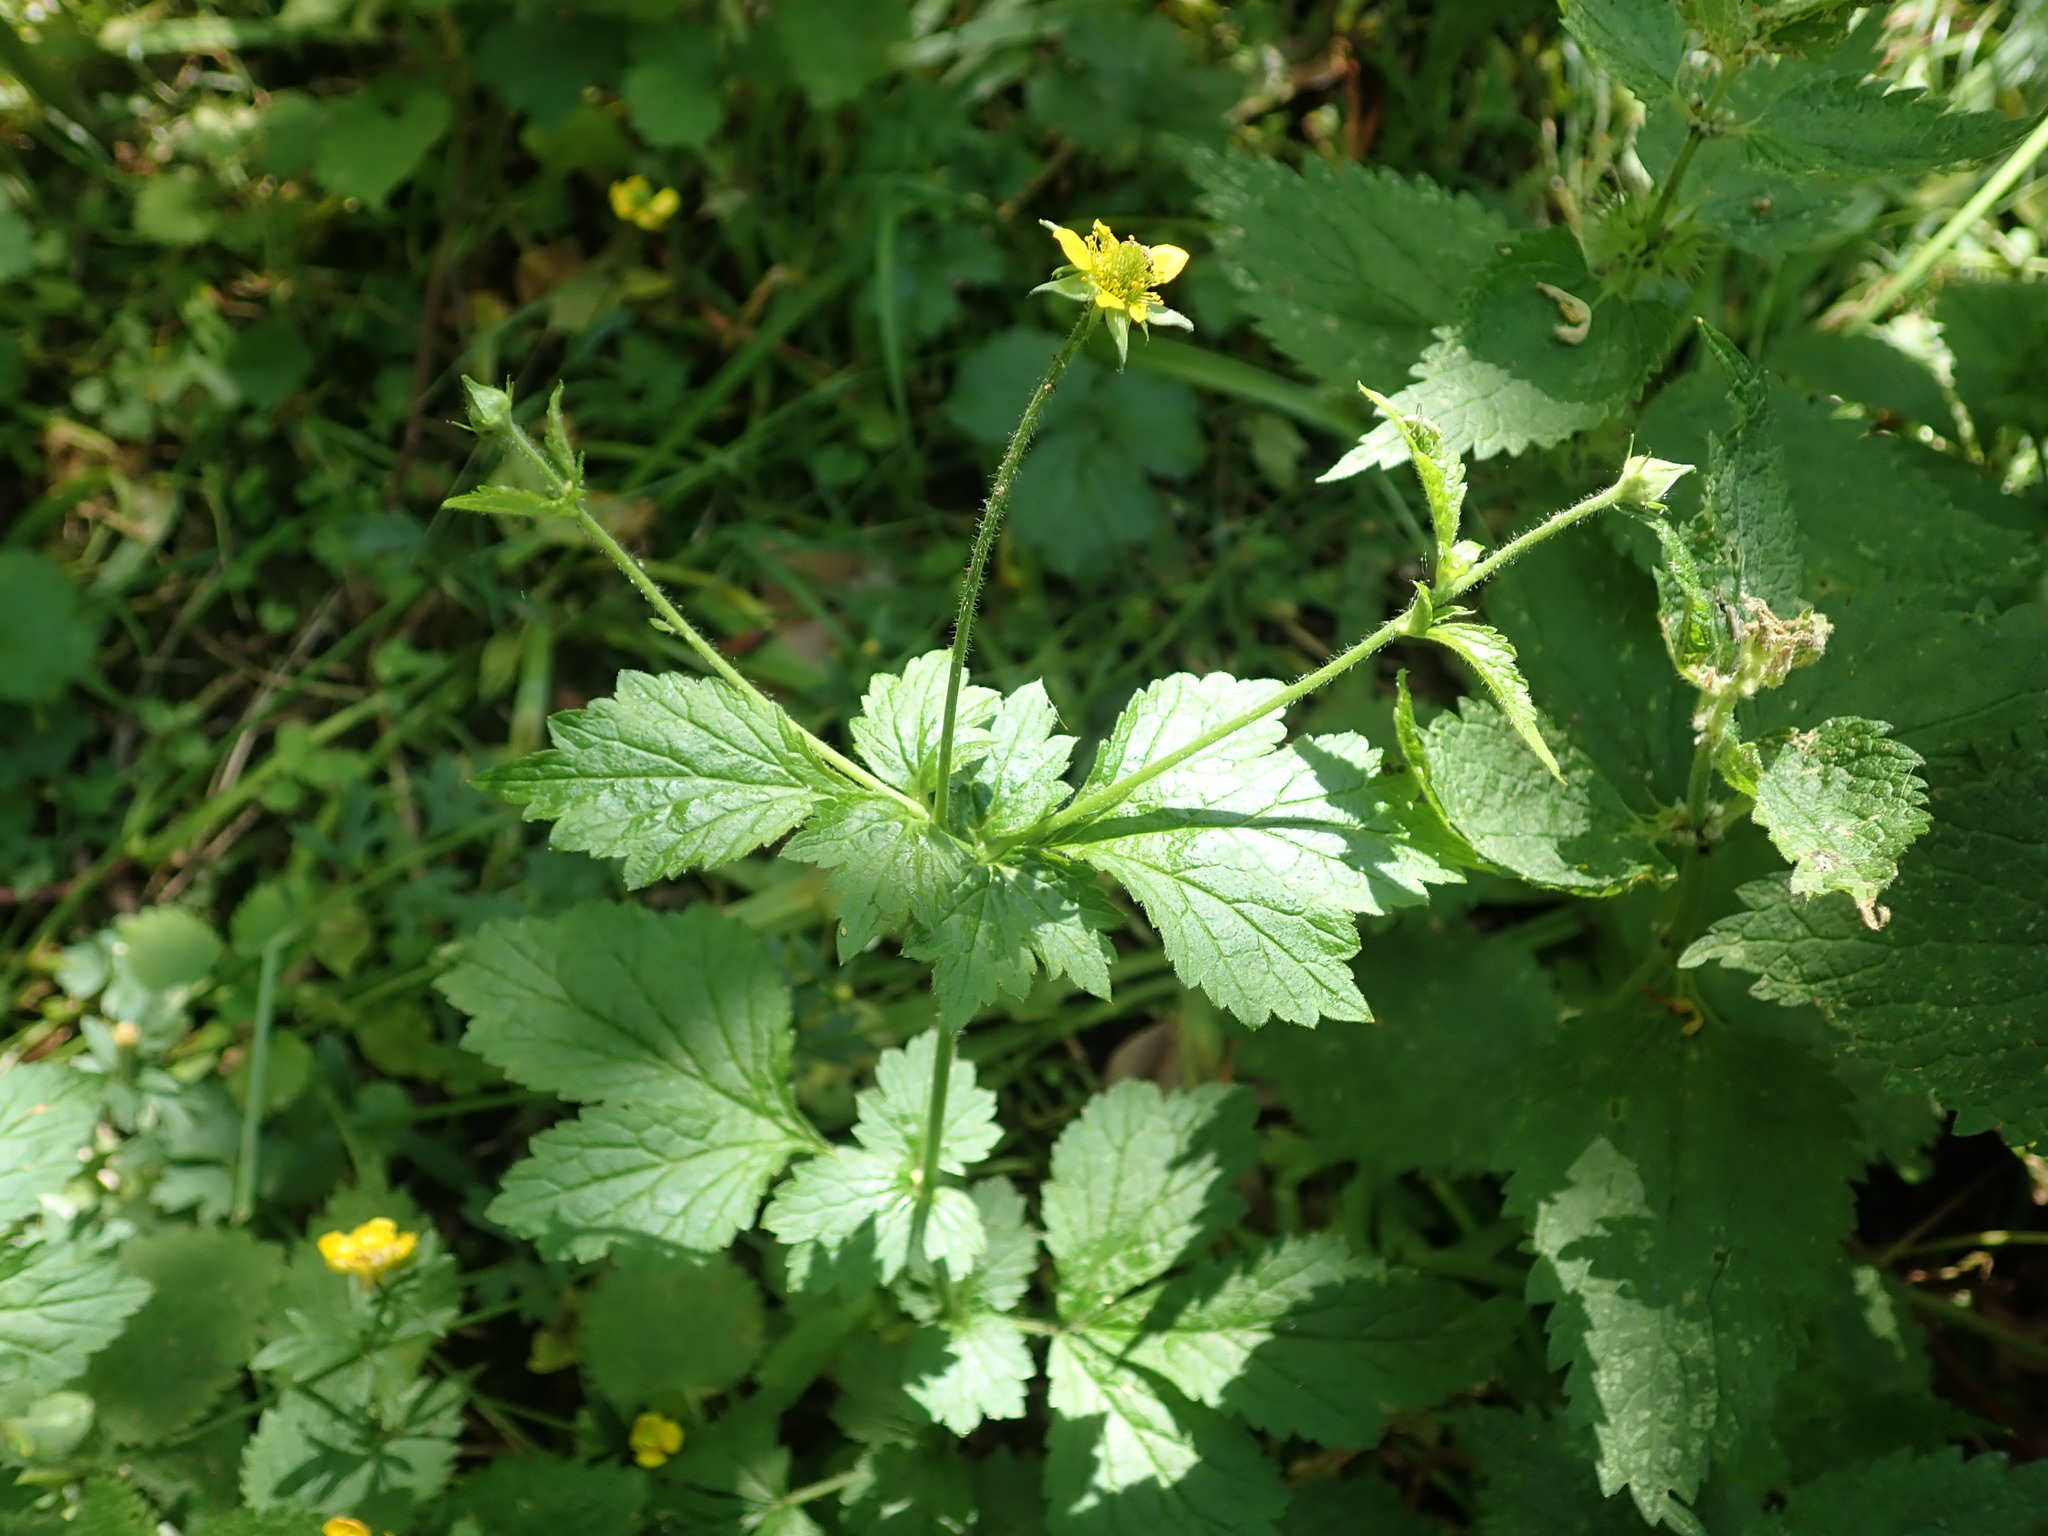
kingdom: Plantae
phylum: Tracheophyta
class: Magnoliopsida
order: Rosales
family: Rosaceae
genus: Geum
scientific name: Geum urbanum
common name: Wood avens
